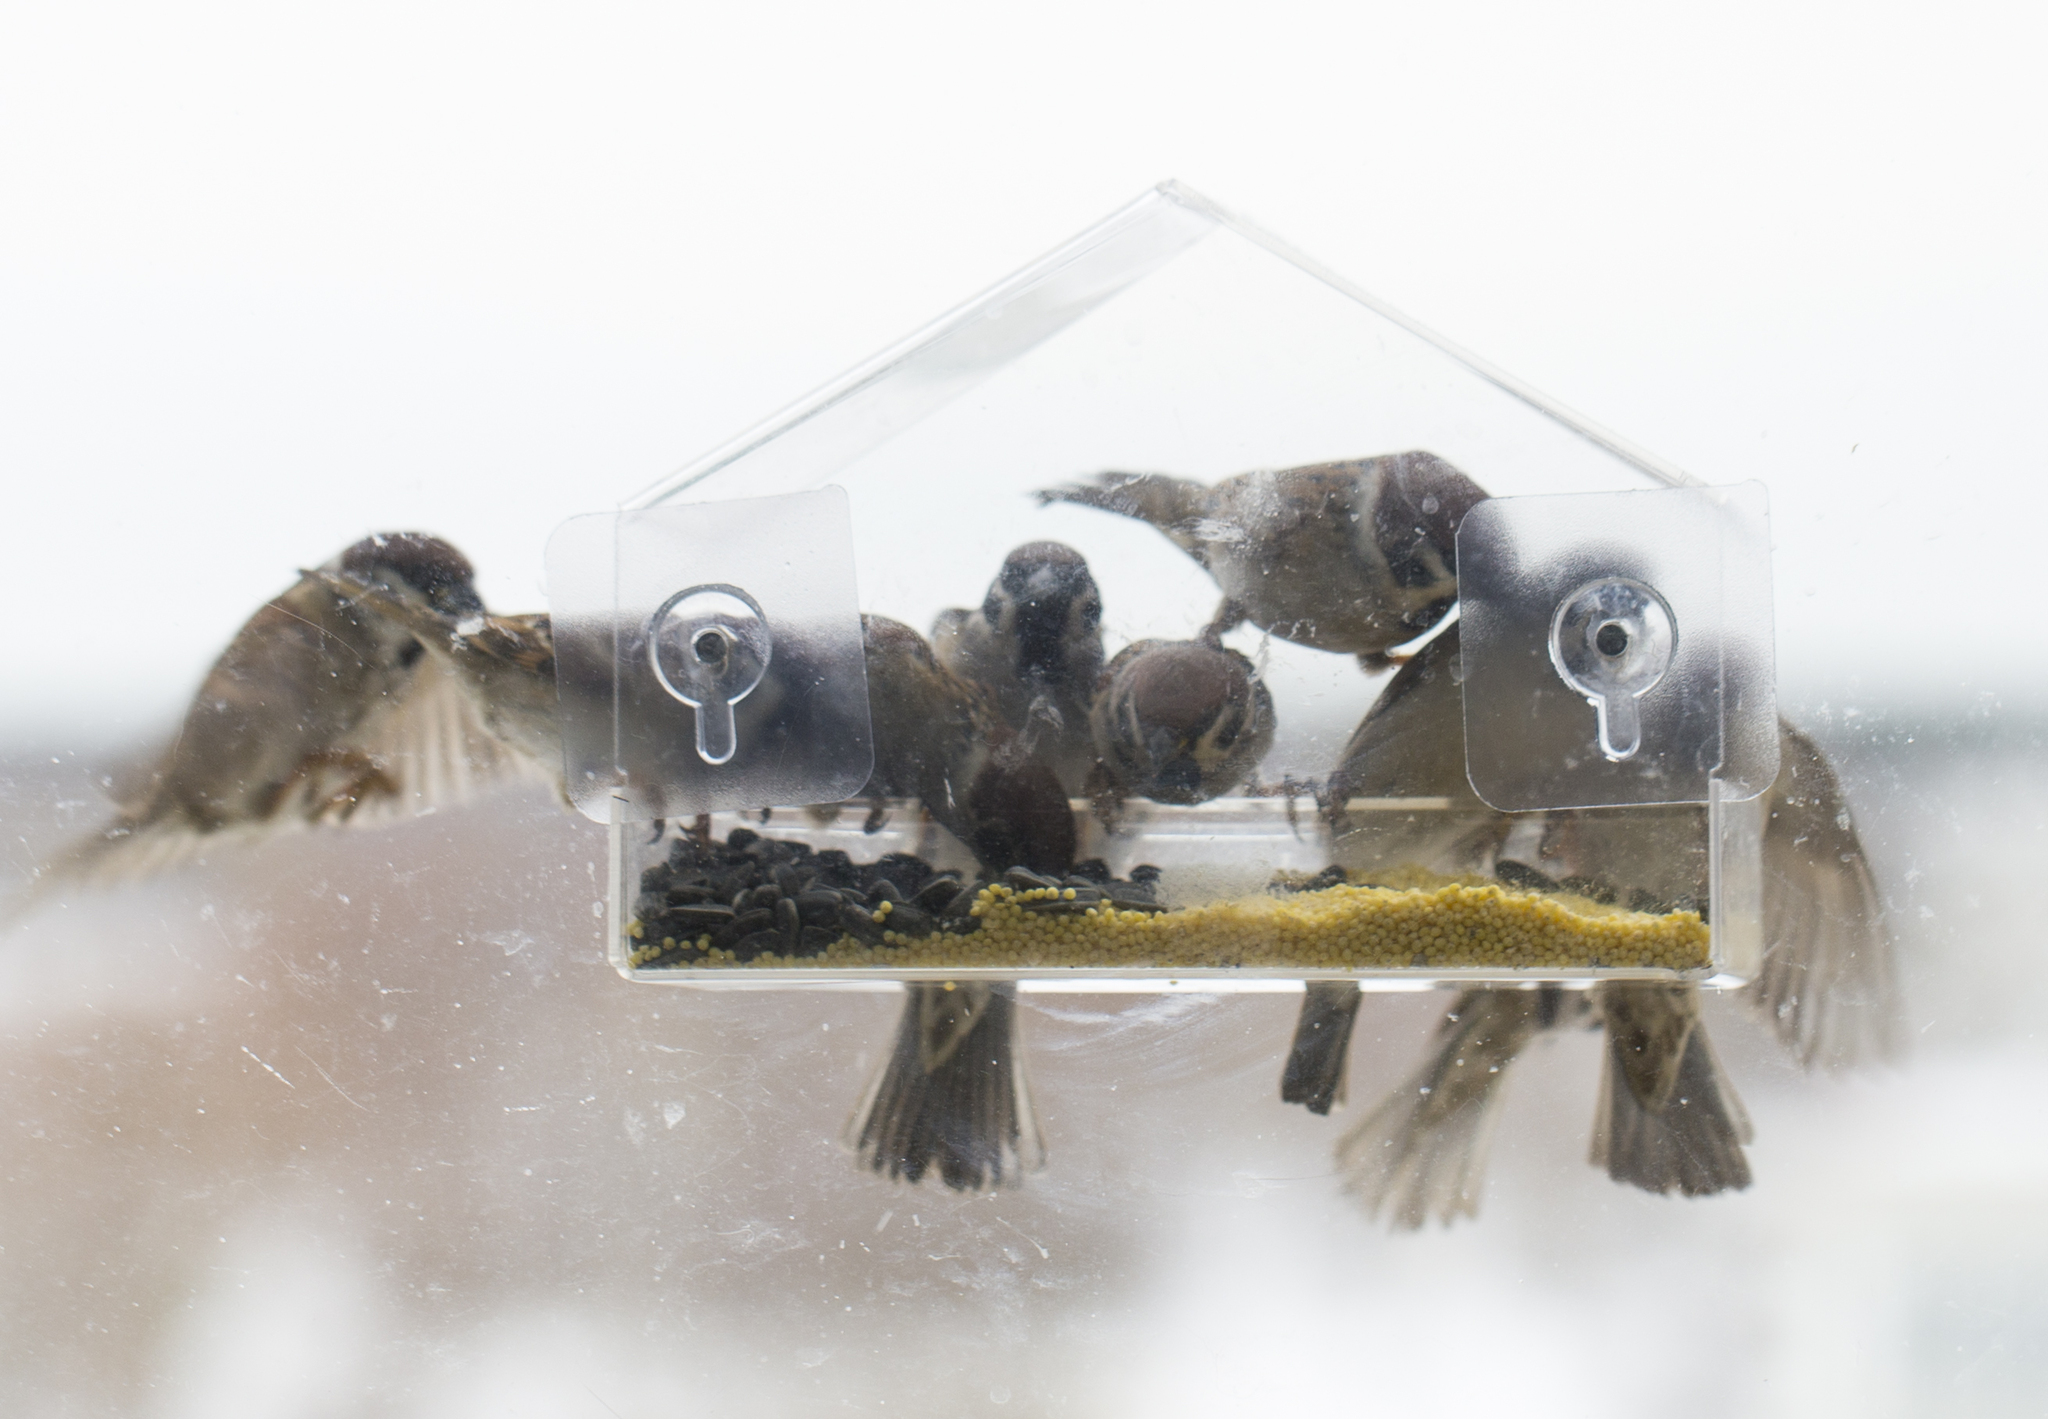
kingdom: Animalia
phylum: Chordata
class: Aves
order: Passeriformes
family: Passeridae
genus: Passer
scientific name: Passer montanus
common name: Eurasian tree sparrow
